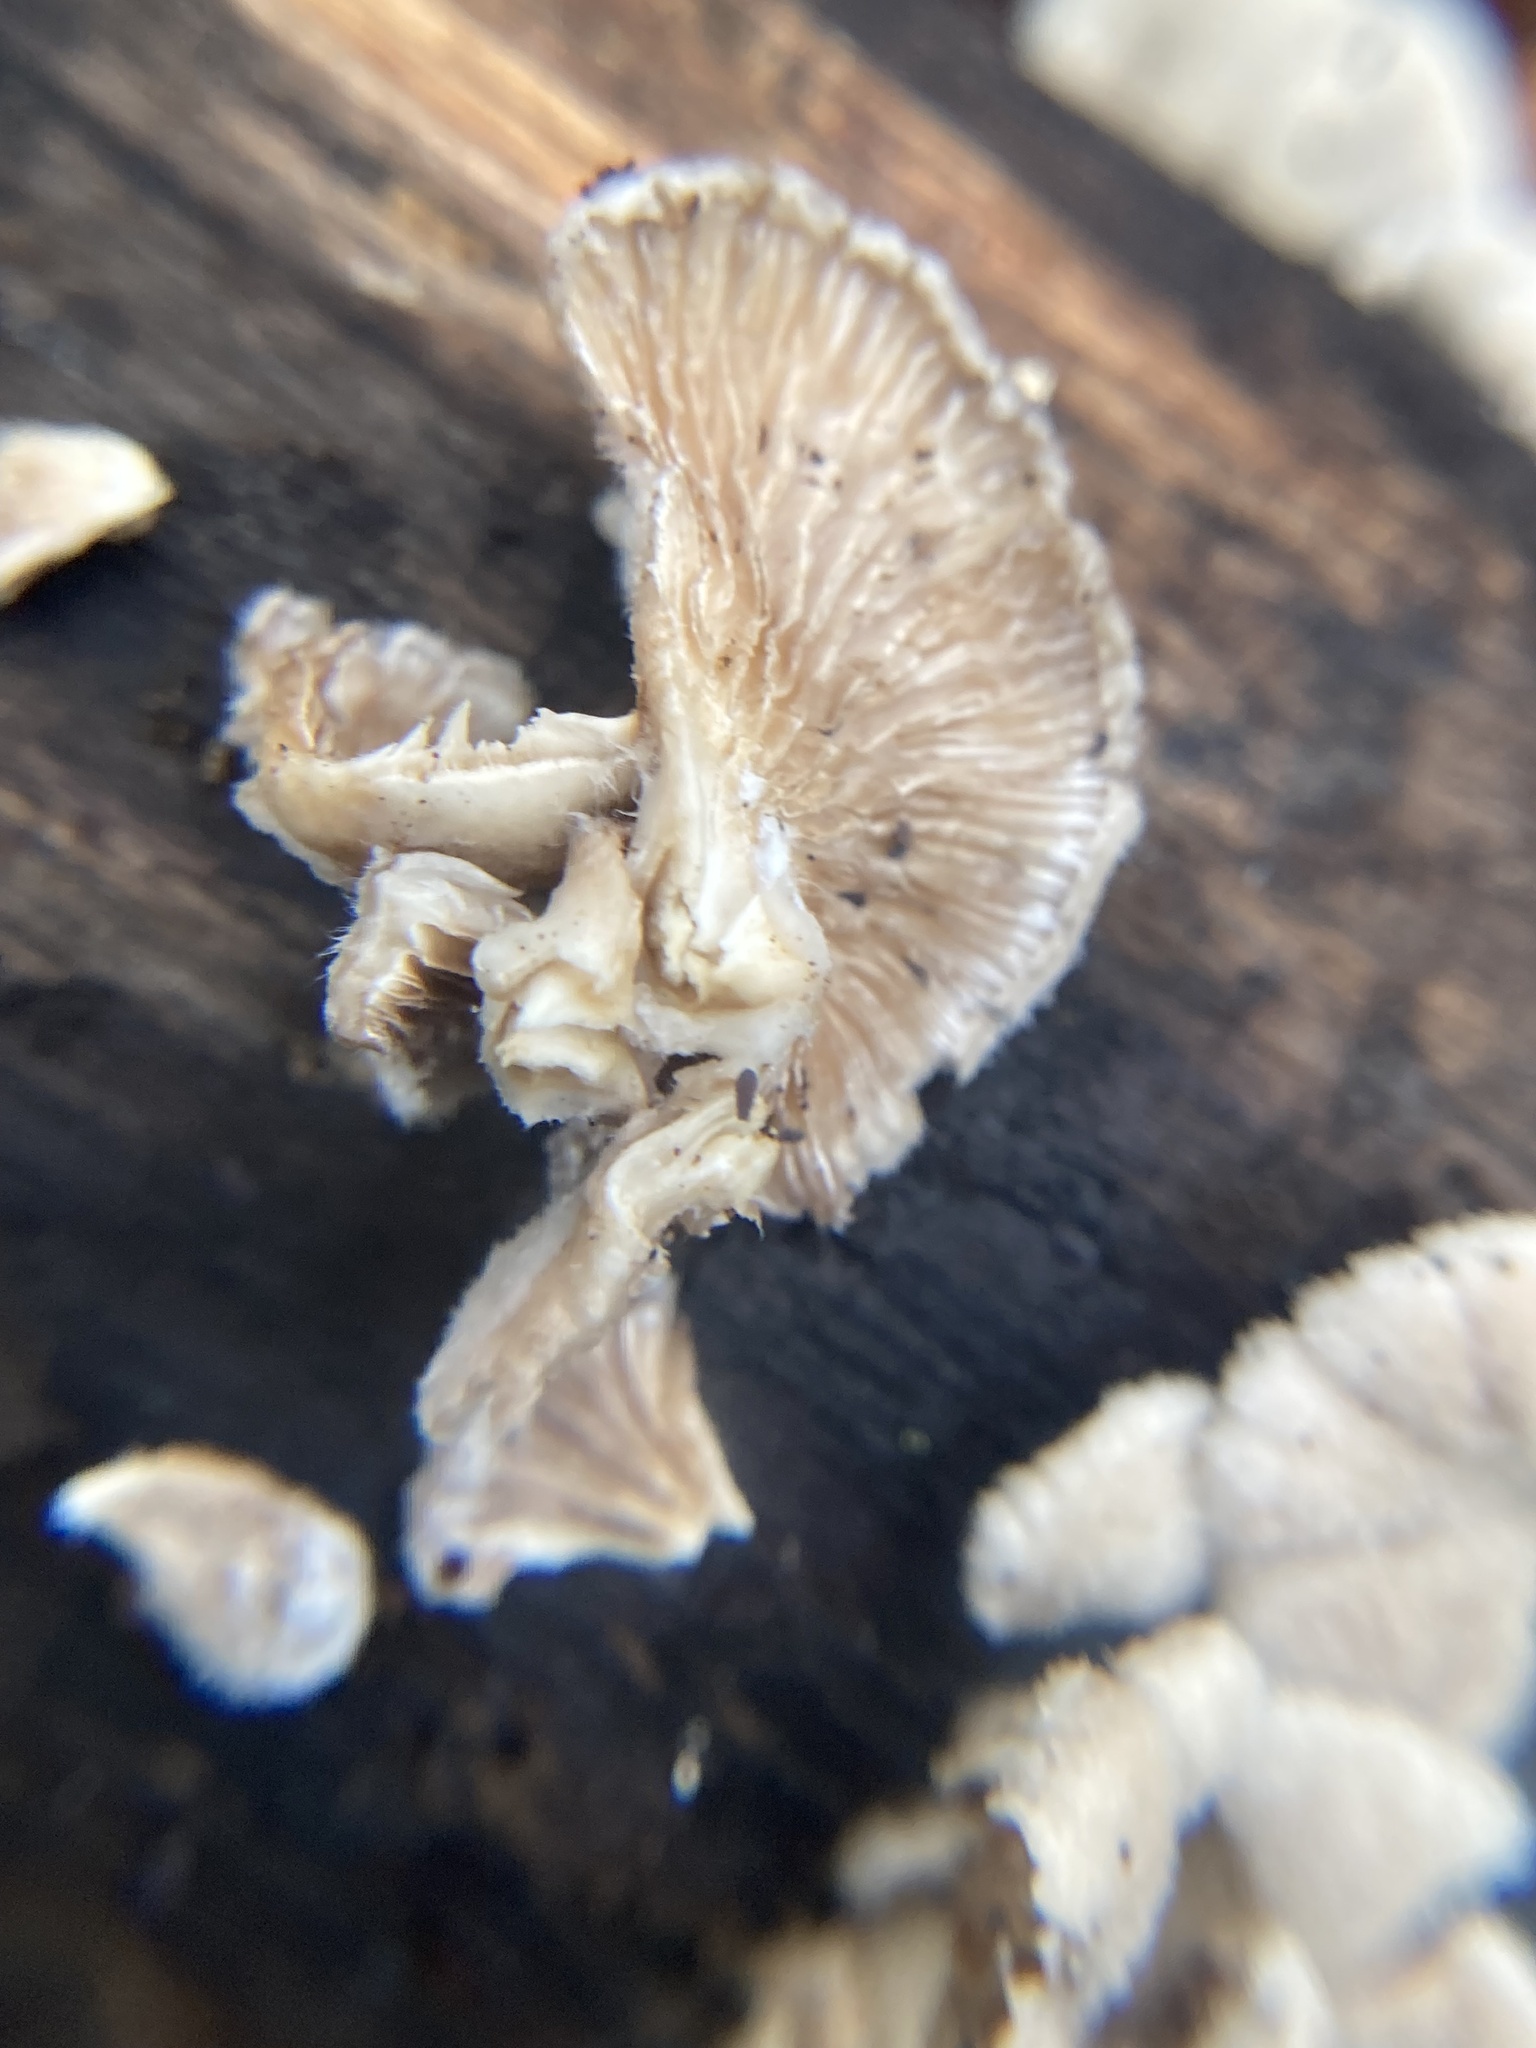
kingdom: Fungi
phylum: Basidiomycota
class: Agaricomycetes
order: Agaricales
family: Schizophyllaceae
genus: Schizophyllum
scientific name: Schizophyllum commune
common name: Common porecrust
